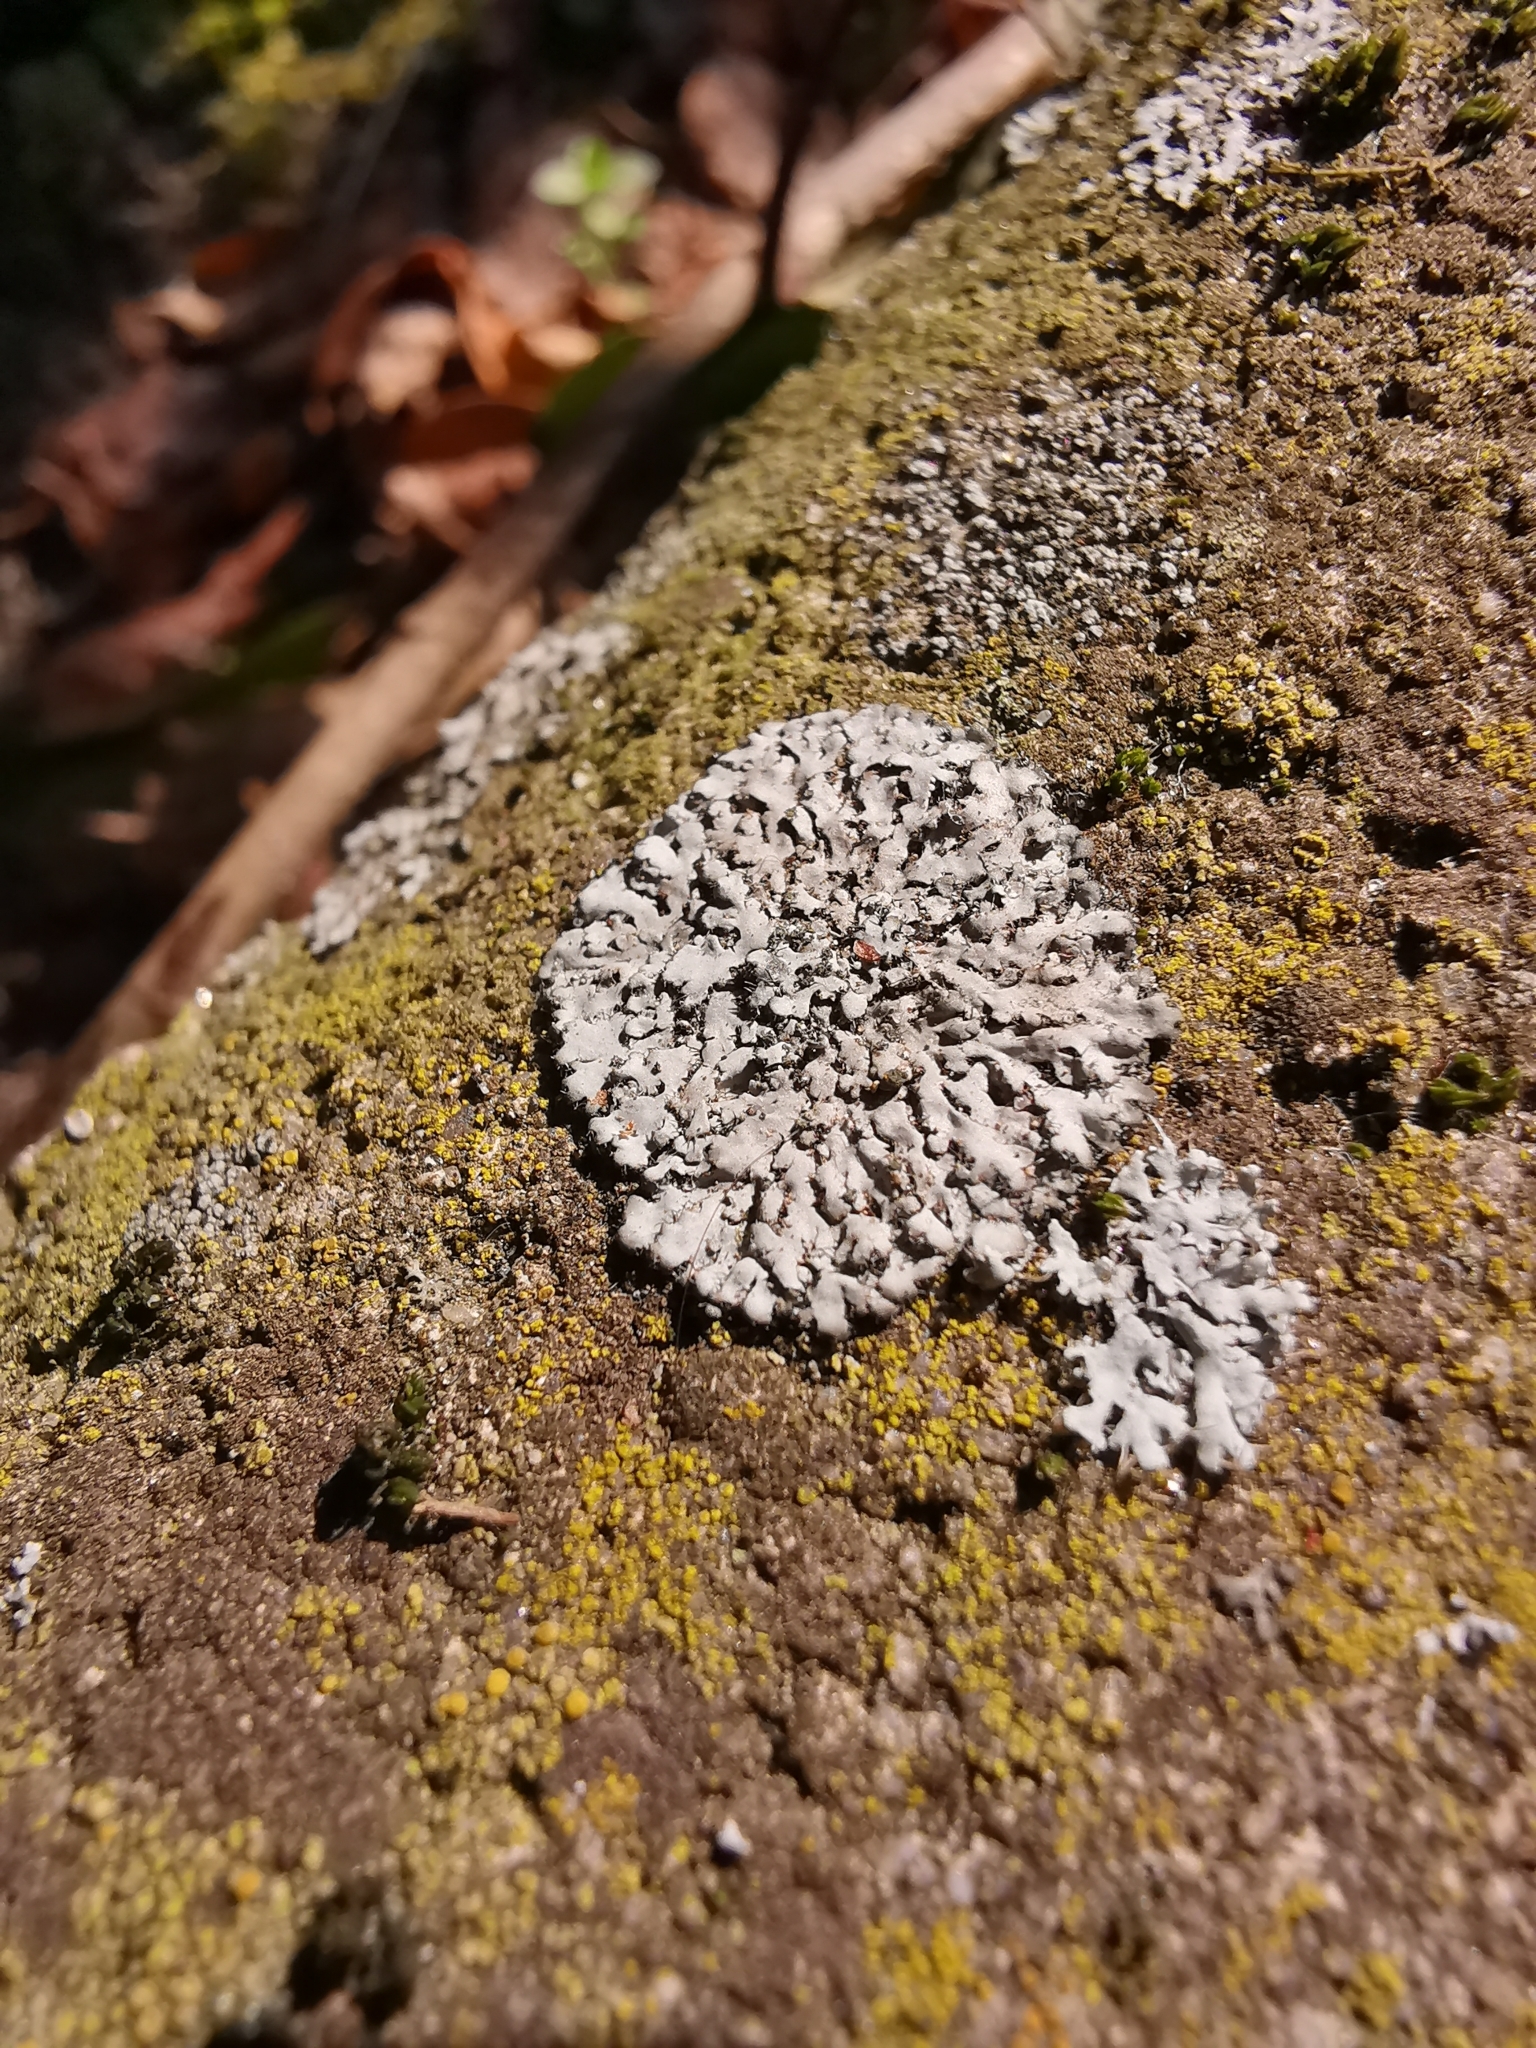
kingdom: Fungi
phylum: Ascomycota
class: Lecanoromycetes
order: Caliciales
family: Physciaceae
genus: Phaeophyscia
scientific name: Phaeophyscia orbicularis
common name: Mealy shadow lichen
